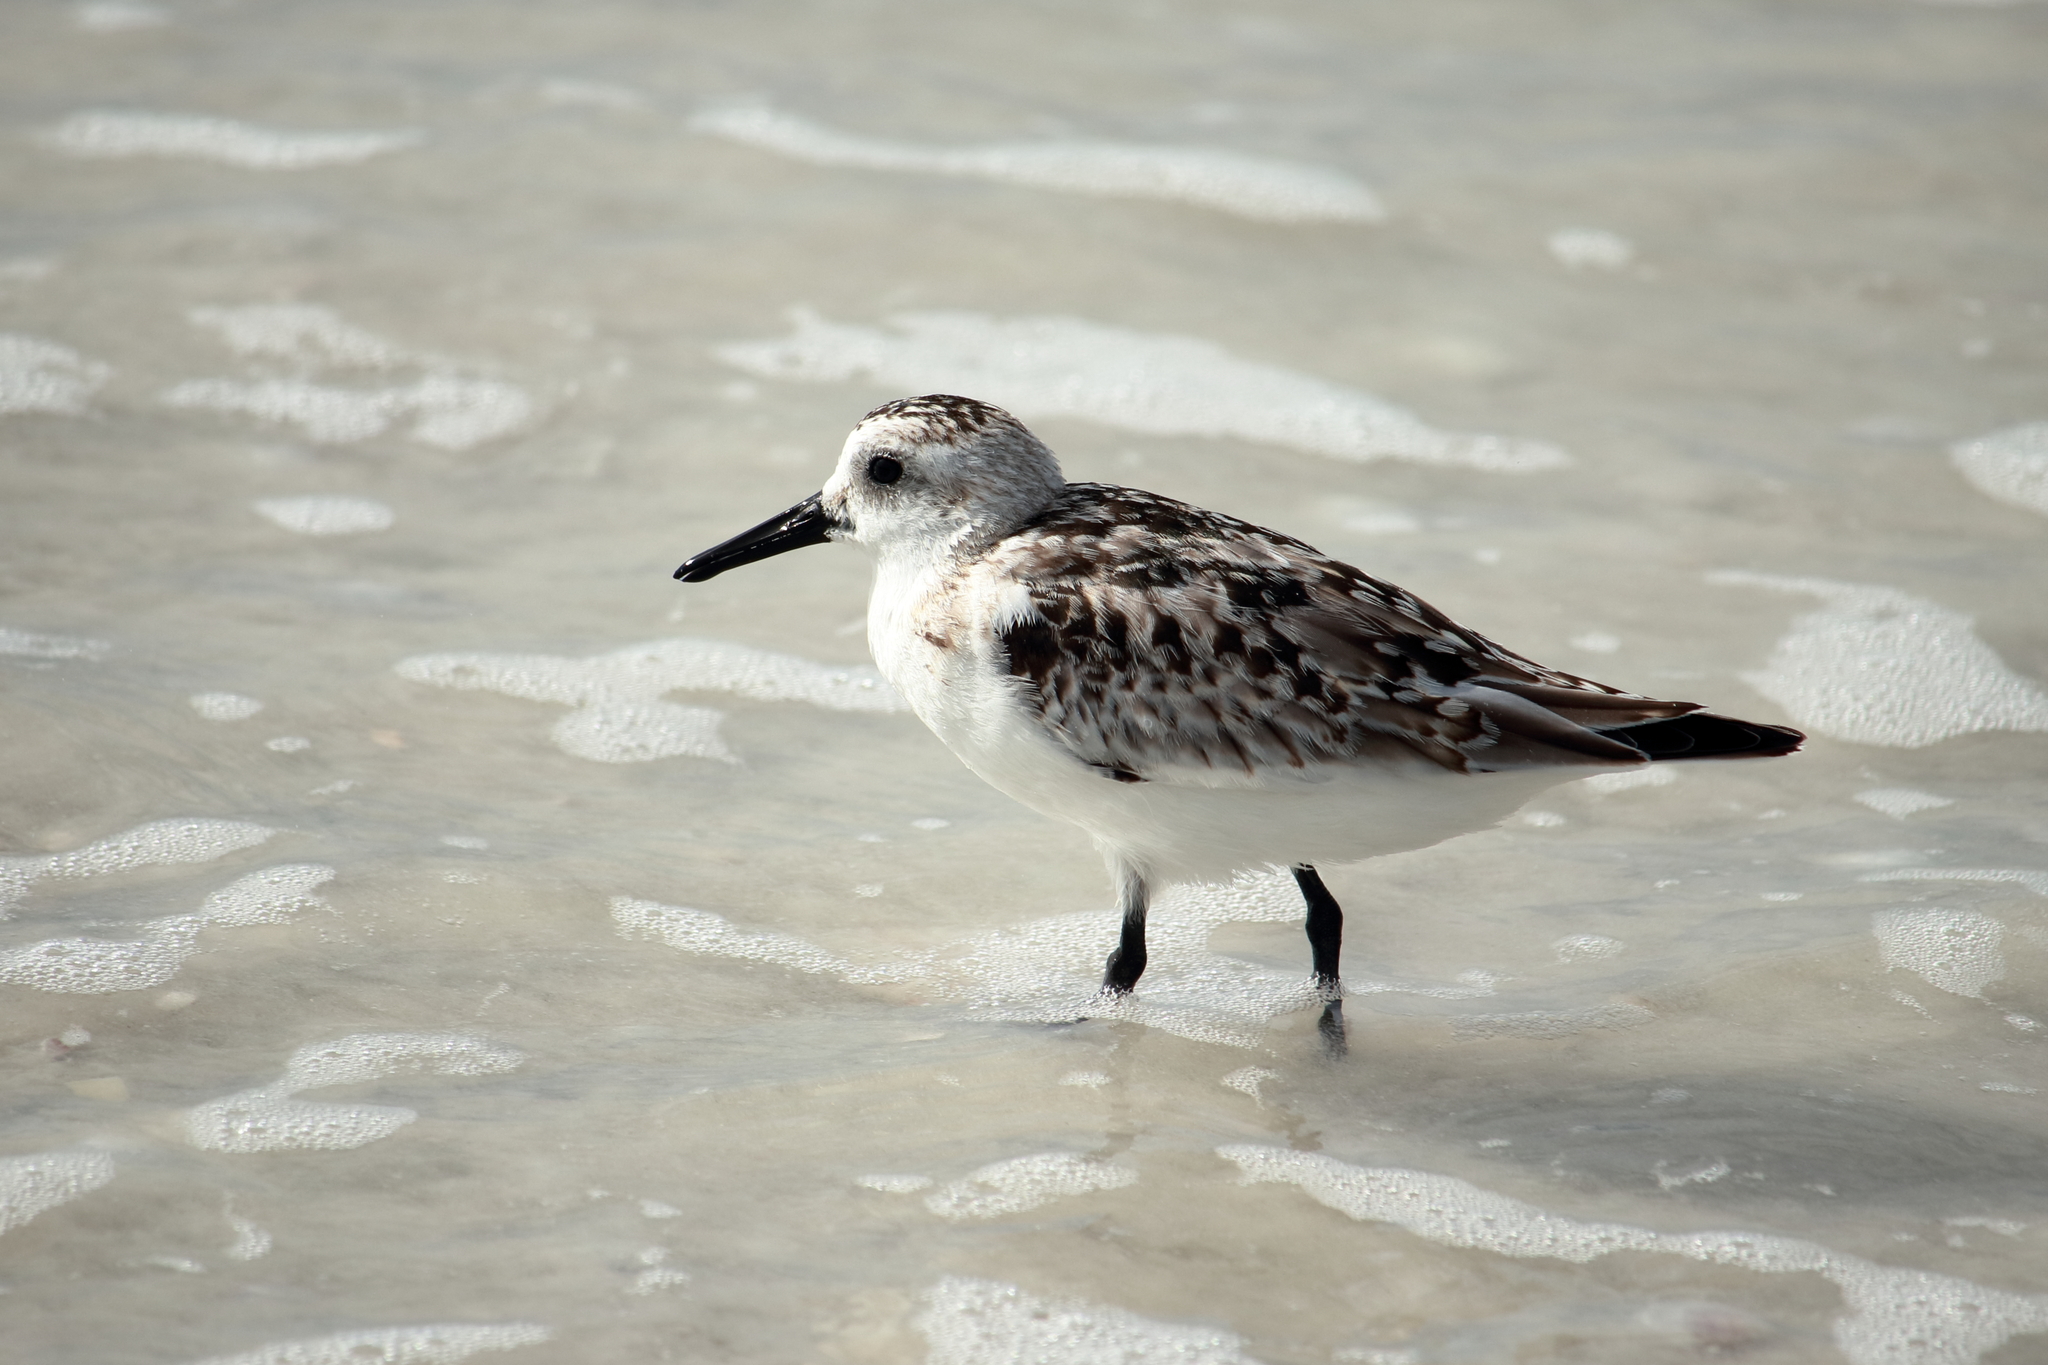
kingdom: Animalia
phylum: Chordata
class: Aves
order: Charadriiformes
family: Scolopacidae
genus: Calidris
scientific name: Calidris alba
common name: Sanderling
